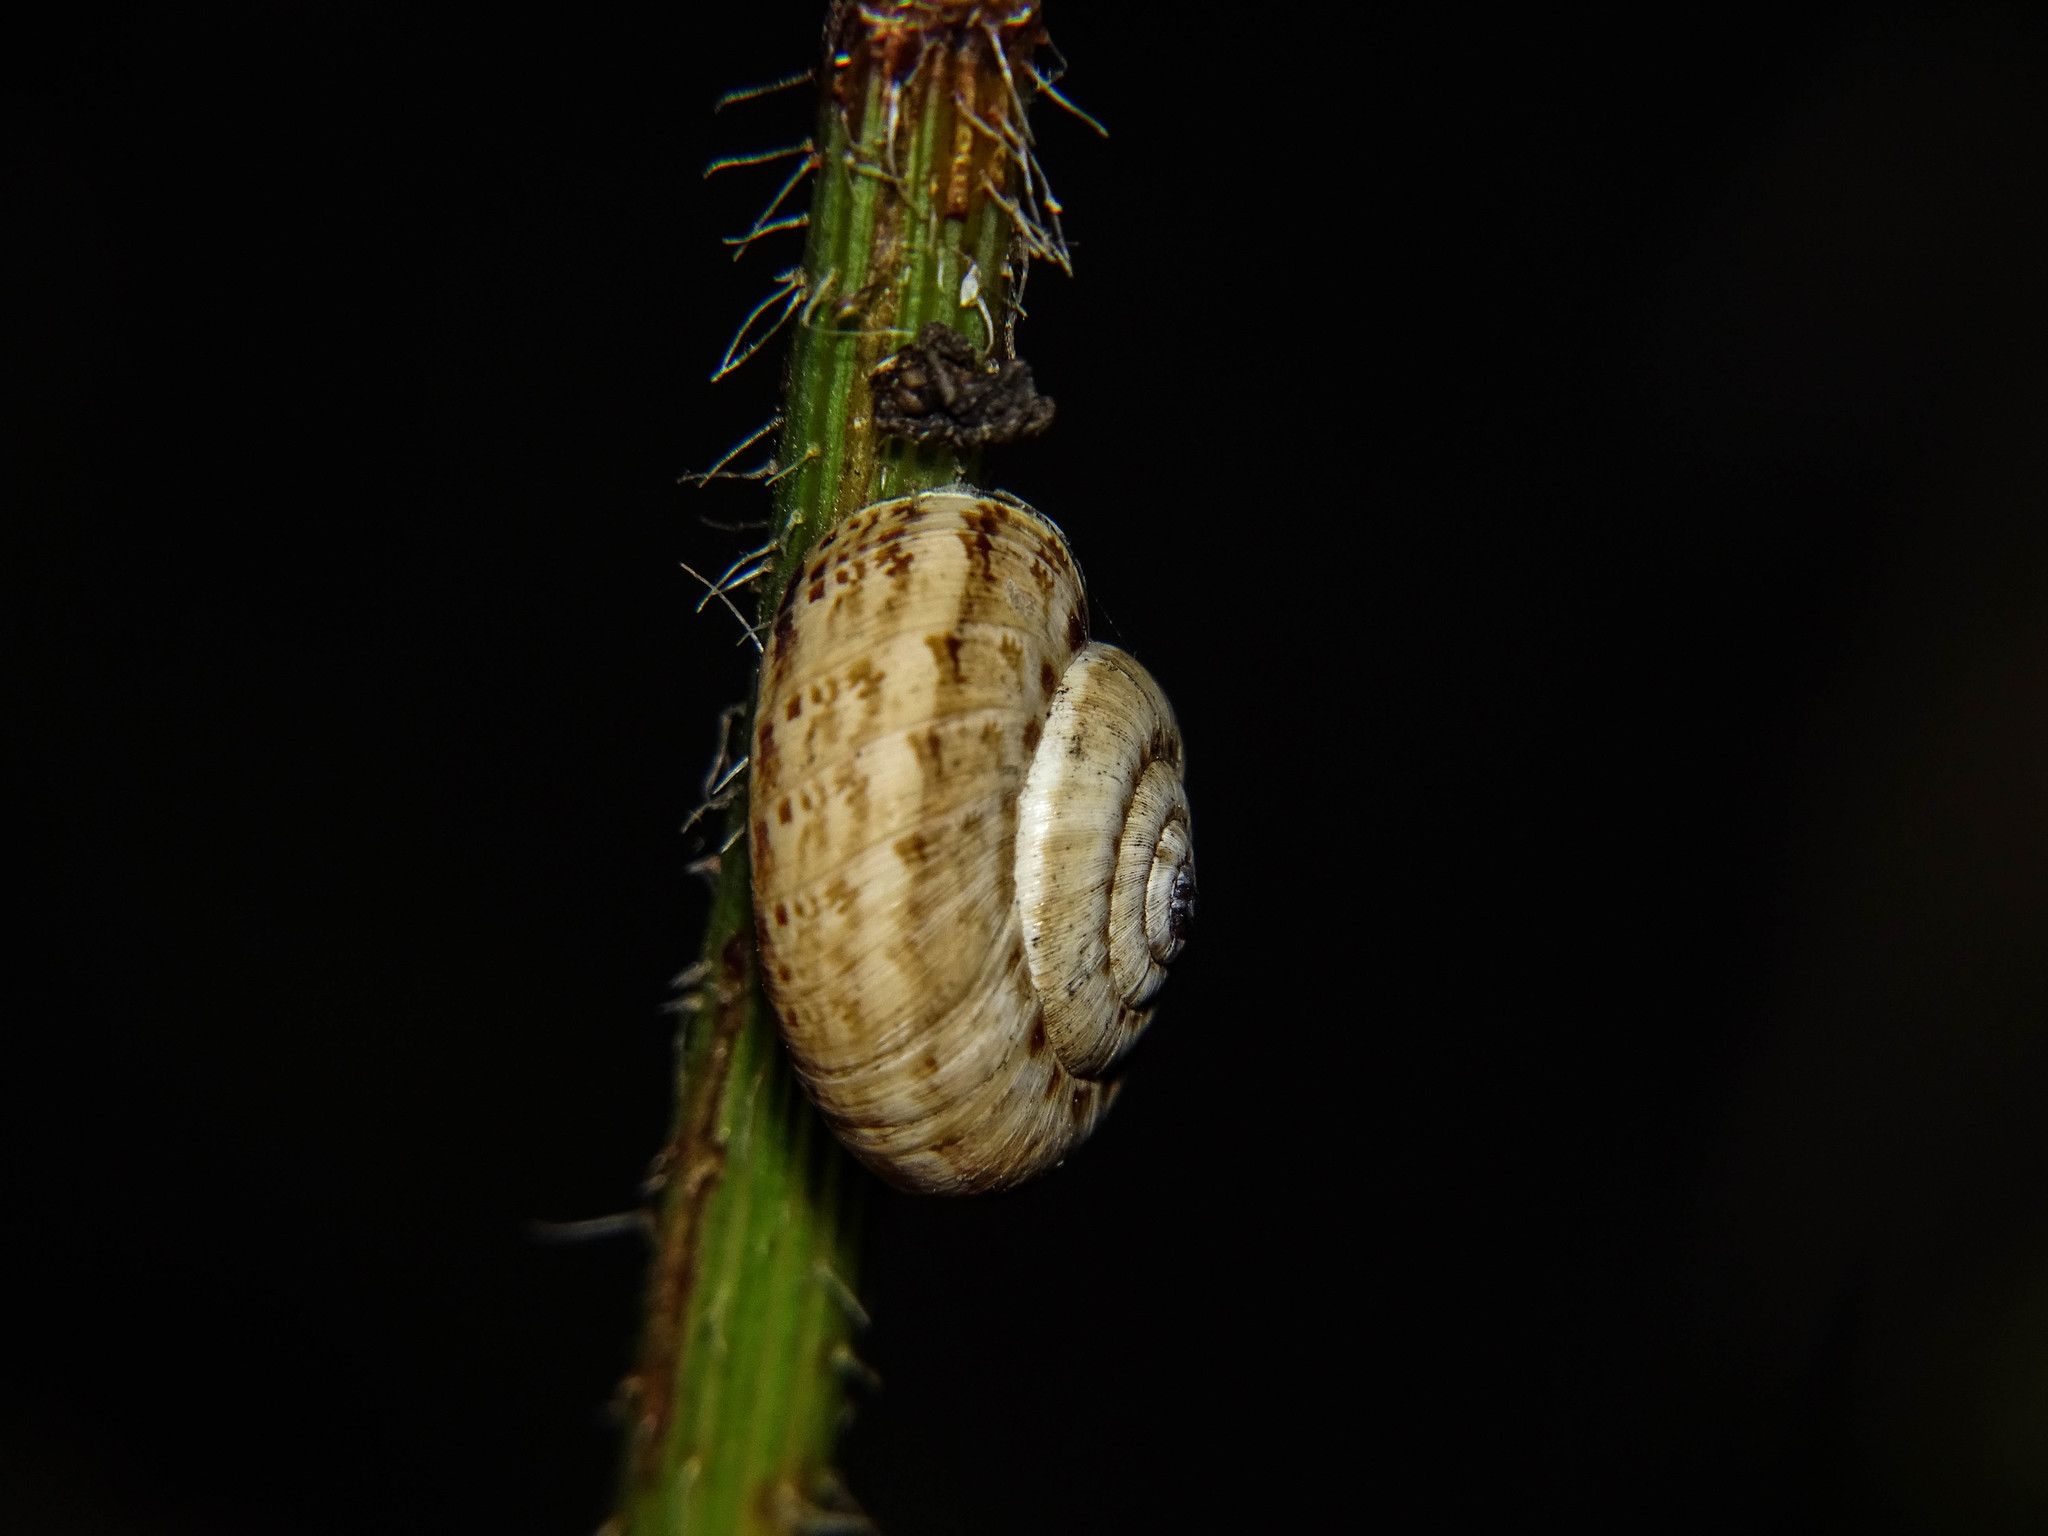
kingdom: Animalia
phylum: Mollusca
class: Gastropoda
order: Stylommatophora
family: Geomitridae
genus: Xeropicta
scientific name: Xeropicta krynickii
